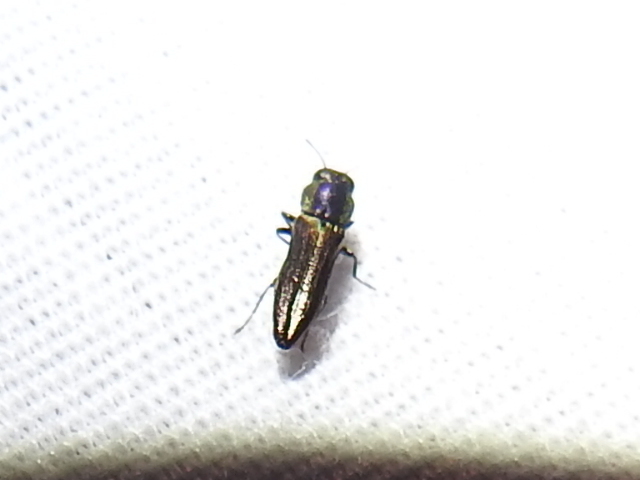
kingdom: Animalia
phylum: Arthropoda
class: Insecta
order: Coleoptera
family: Buprestidae
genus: Agrilaxia
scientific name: Agrilaxia flavimana
